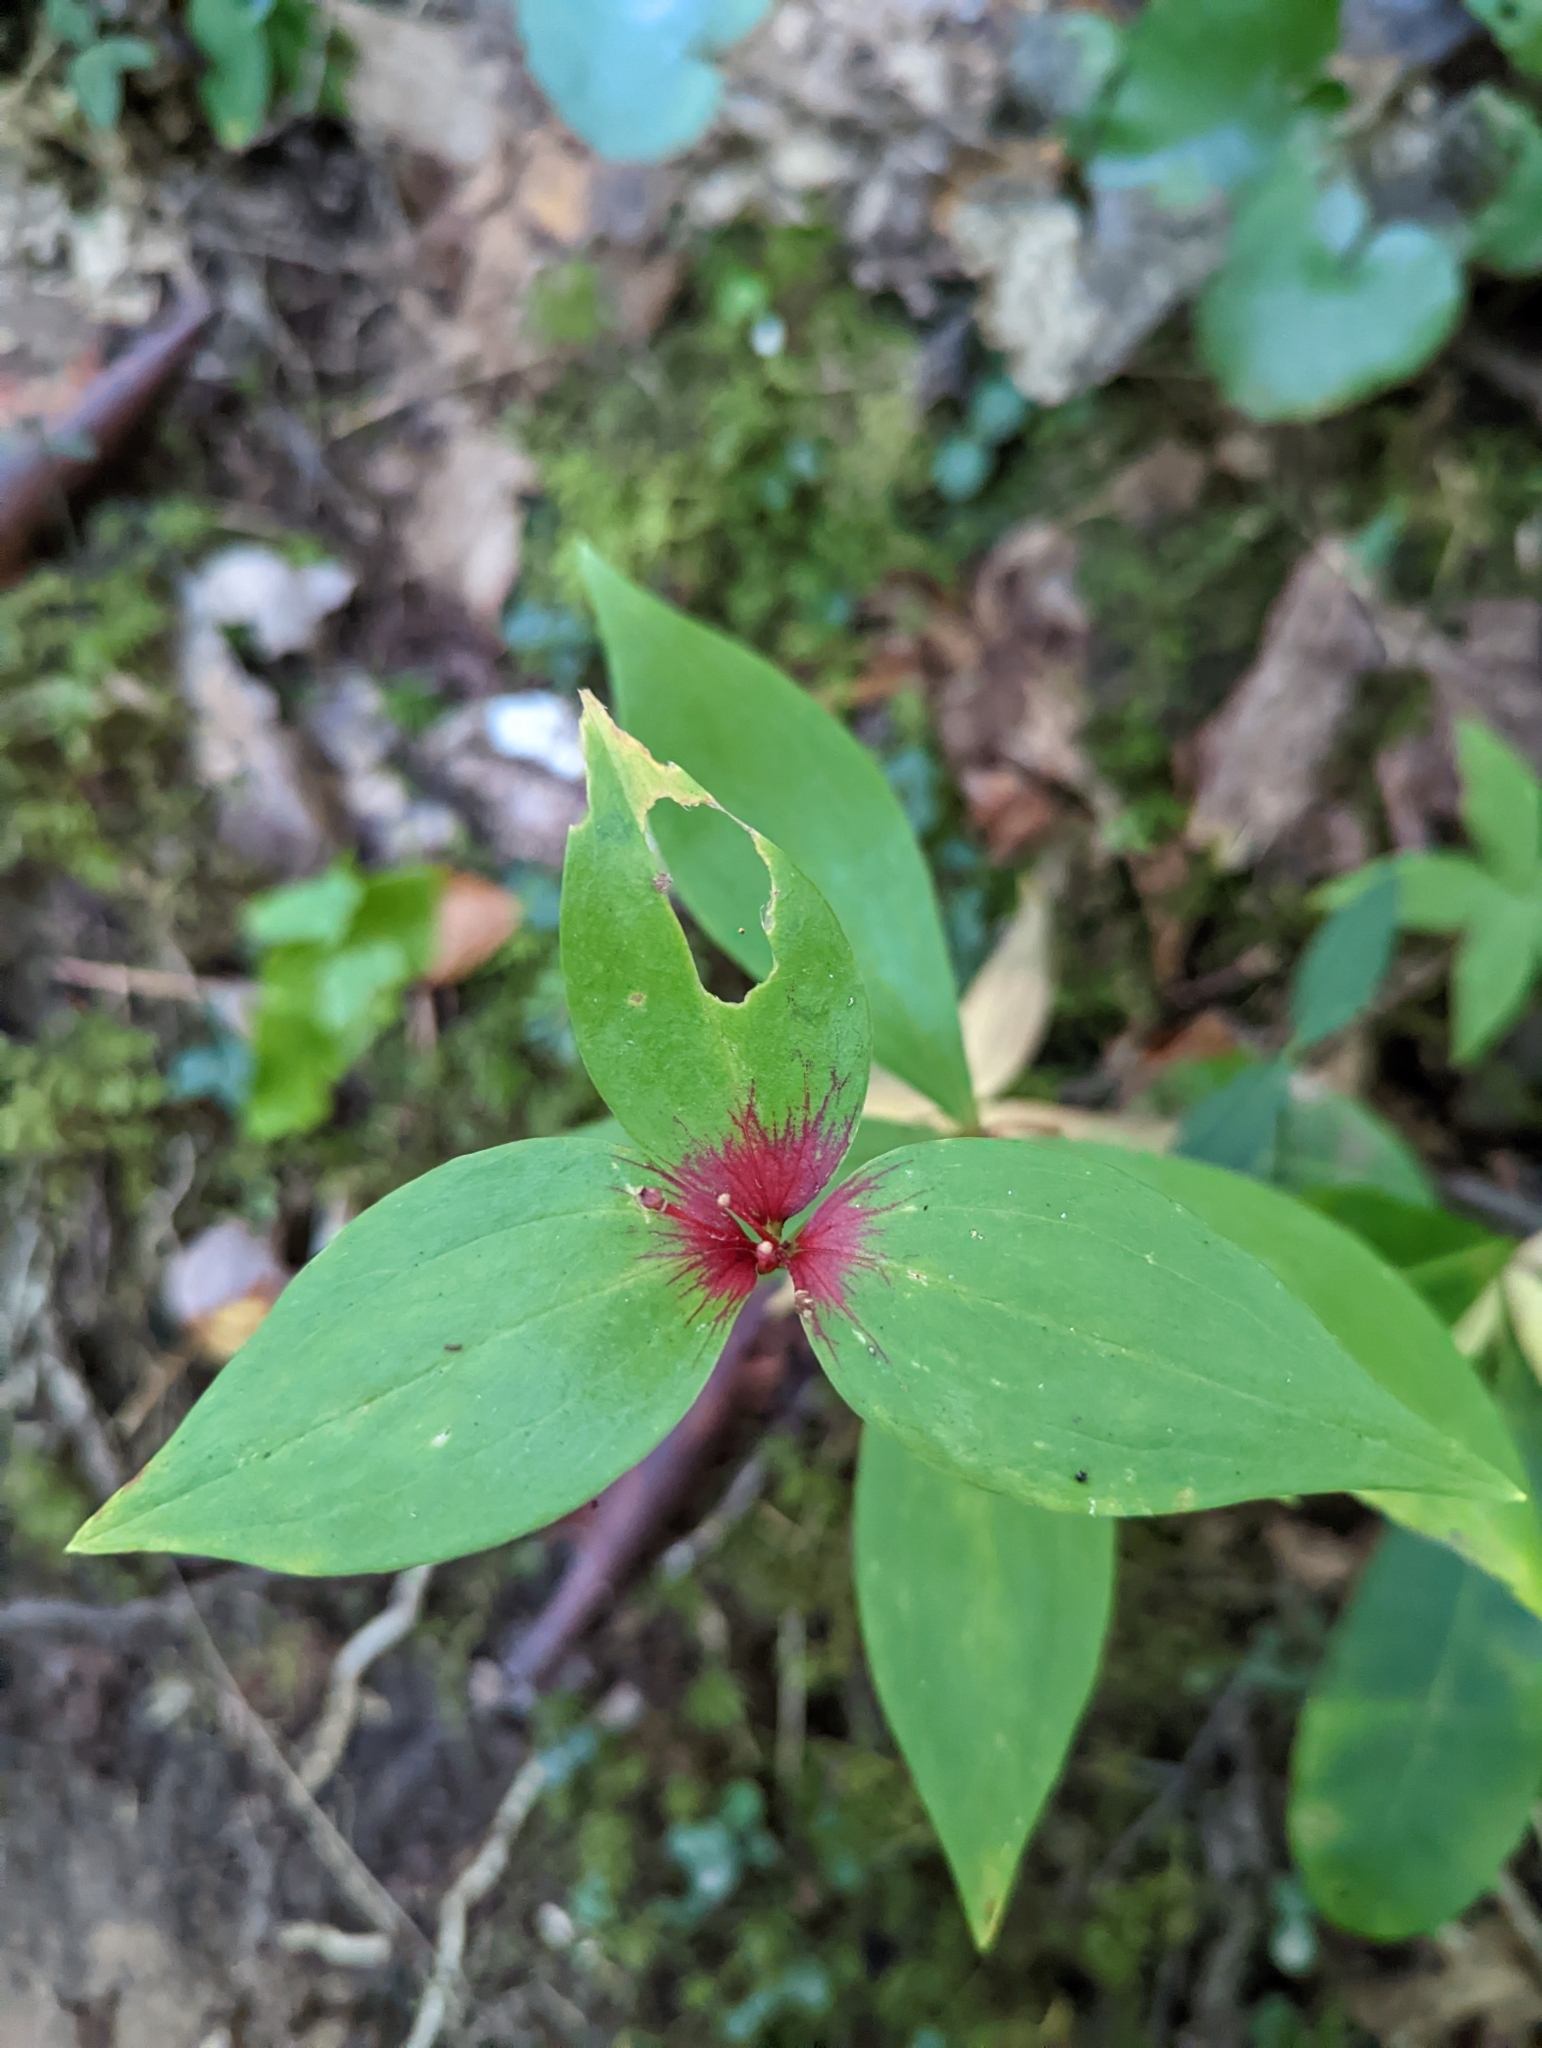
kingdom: Plantae
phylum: Tracheophyta
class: Liliopsida
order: Liliales
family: Liliaceae
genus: Medeola
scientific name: Medeola virginiana
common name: Indian cucumber-root
